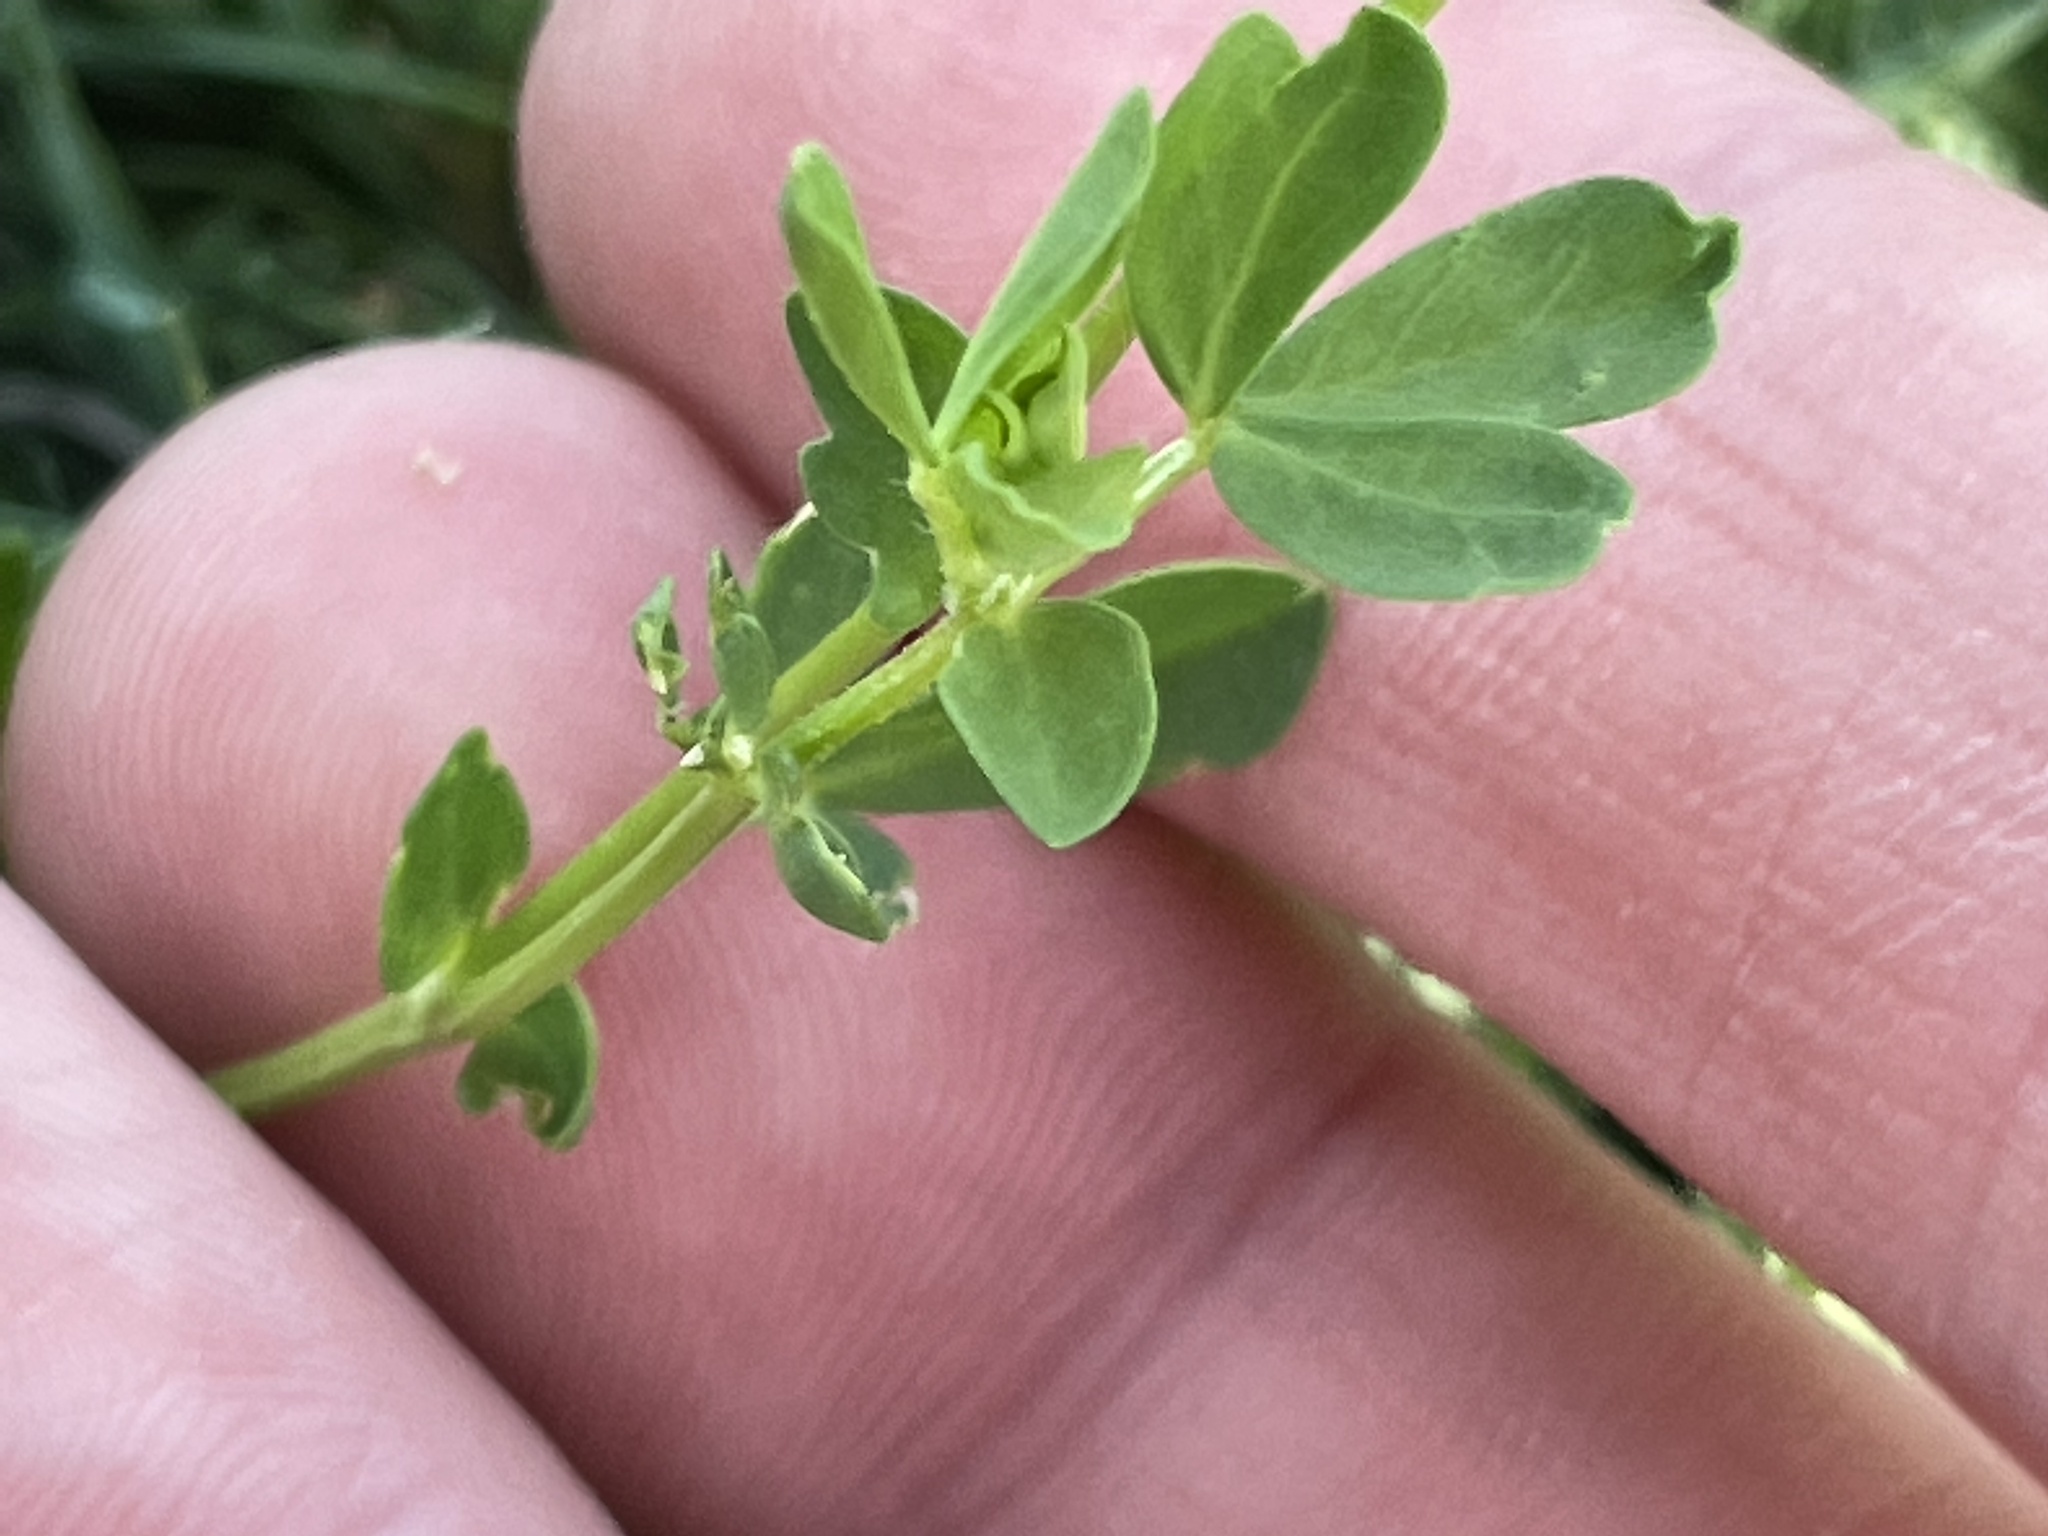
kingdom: Plantae
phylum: Tracheophyta
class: Magnoliopsida
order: Fabales
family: Fabaceae
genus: Lotus
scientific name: Lotus corniculatus
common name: Common bird's-foot-trefoil
